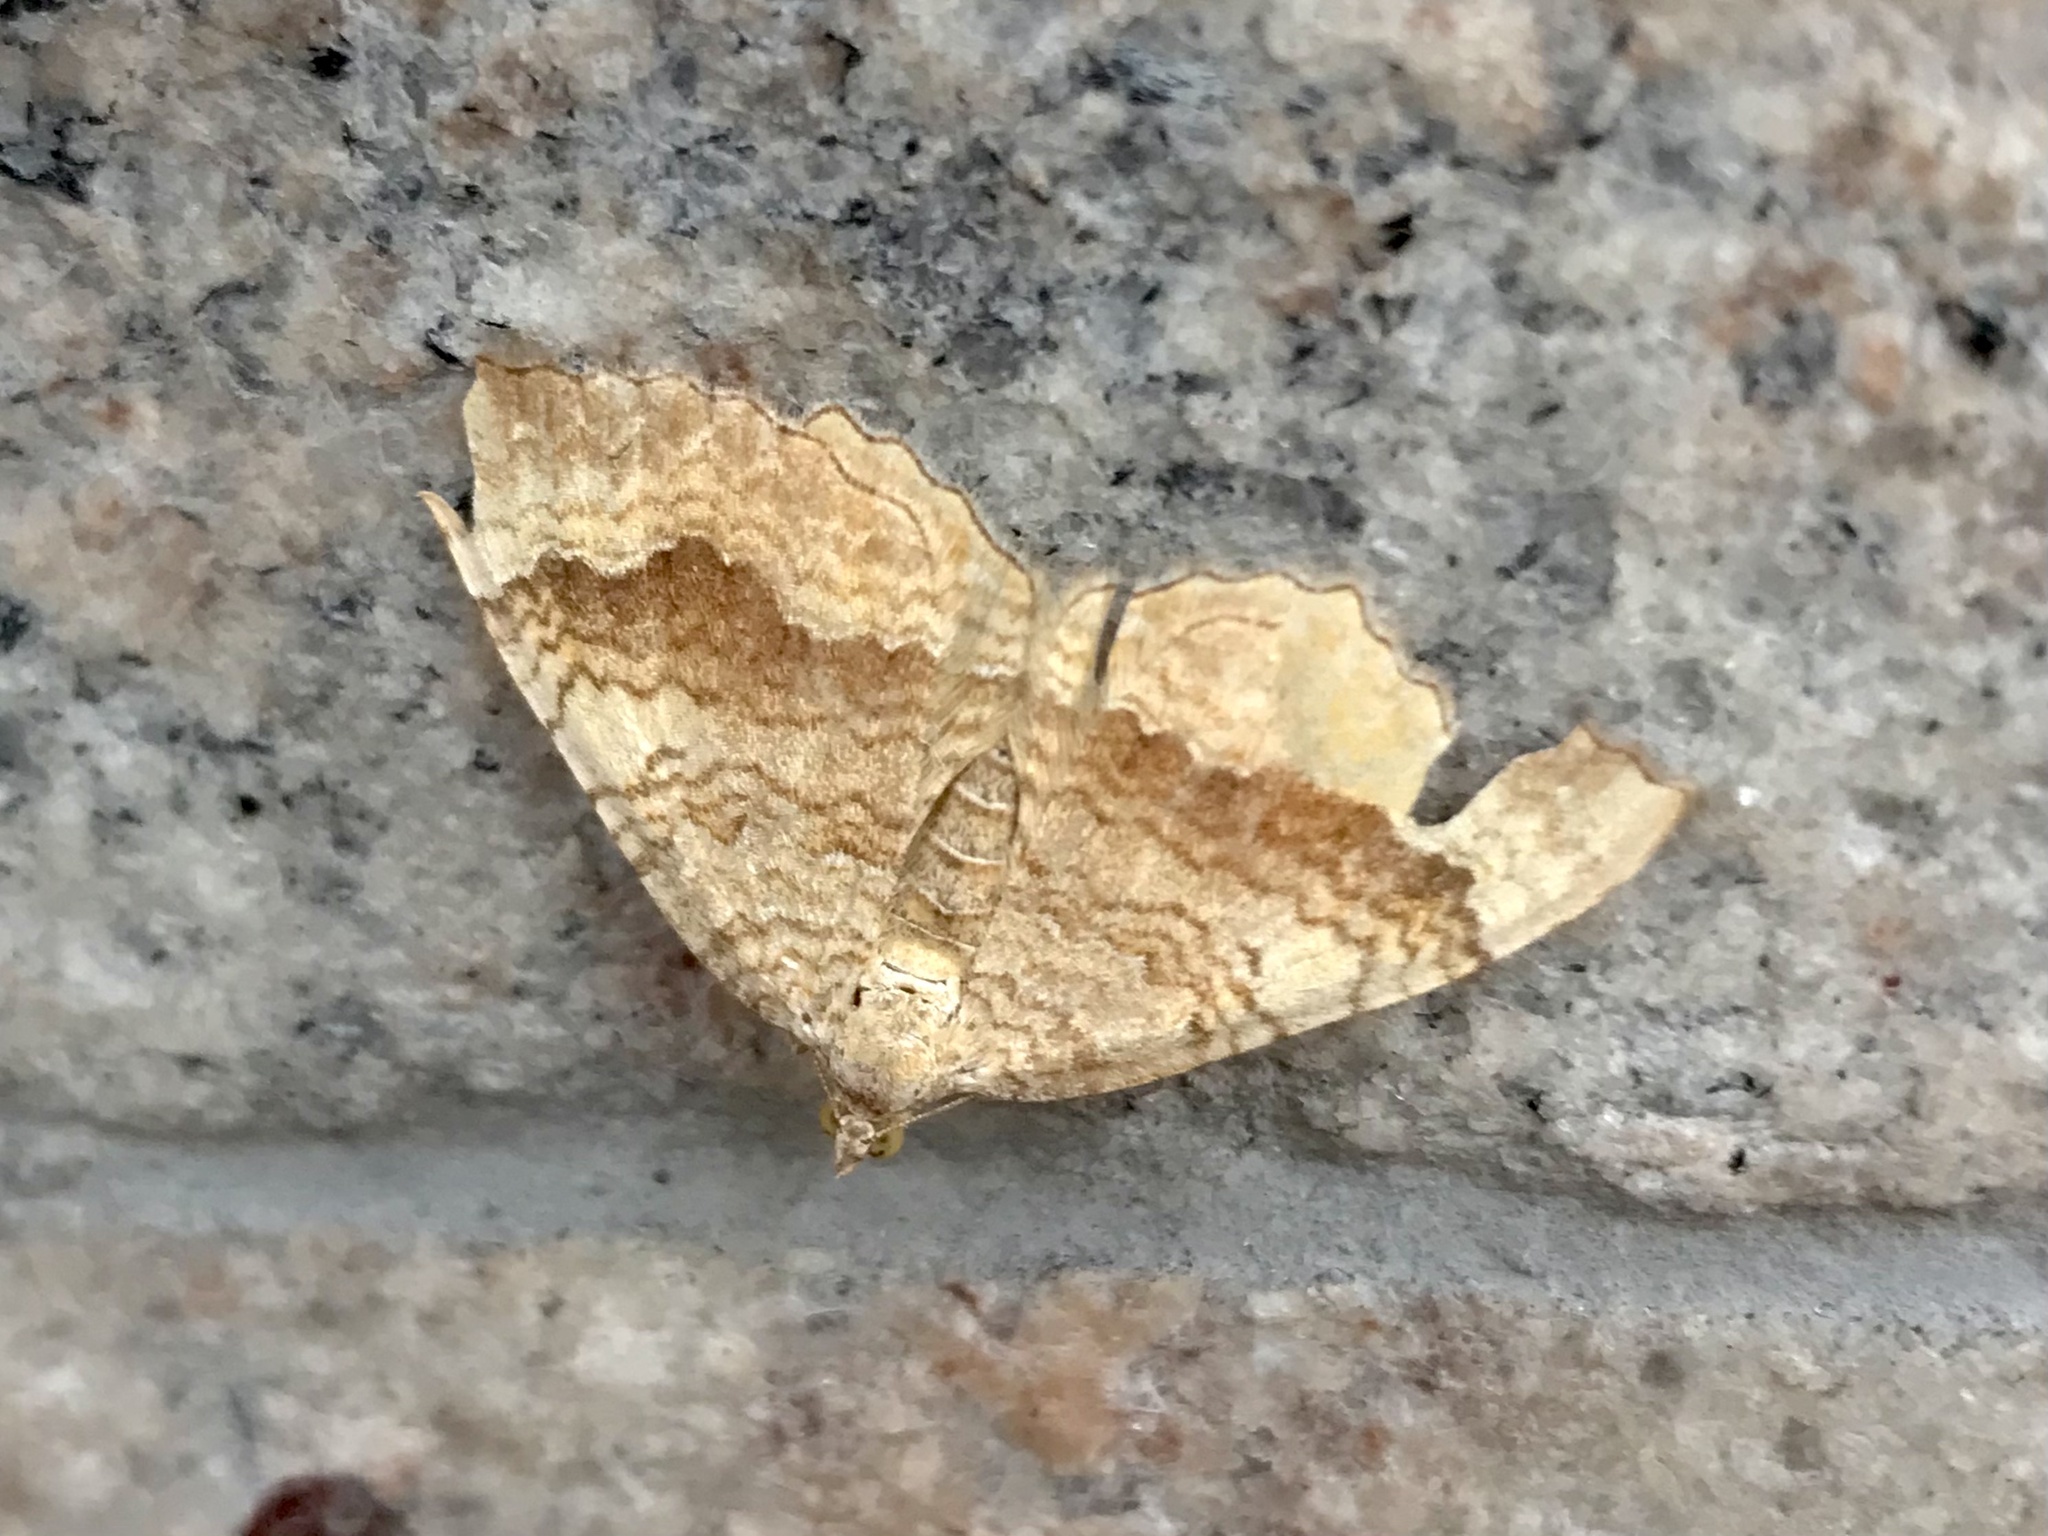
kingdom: Animalia
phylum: Arthropoda
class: Insecta
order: Lepidoptera
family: Geometridae
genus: Camptogramma
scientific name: Camptogramma bilineata
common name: Yellow shell
